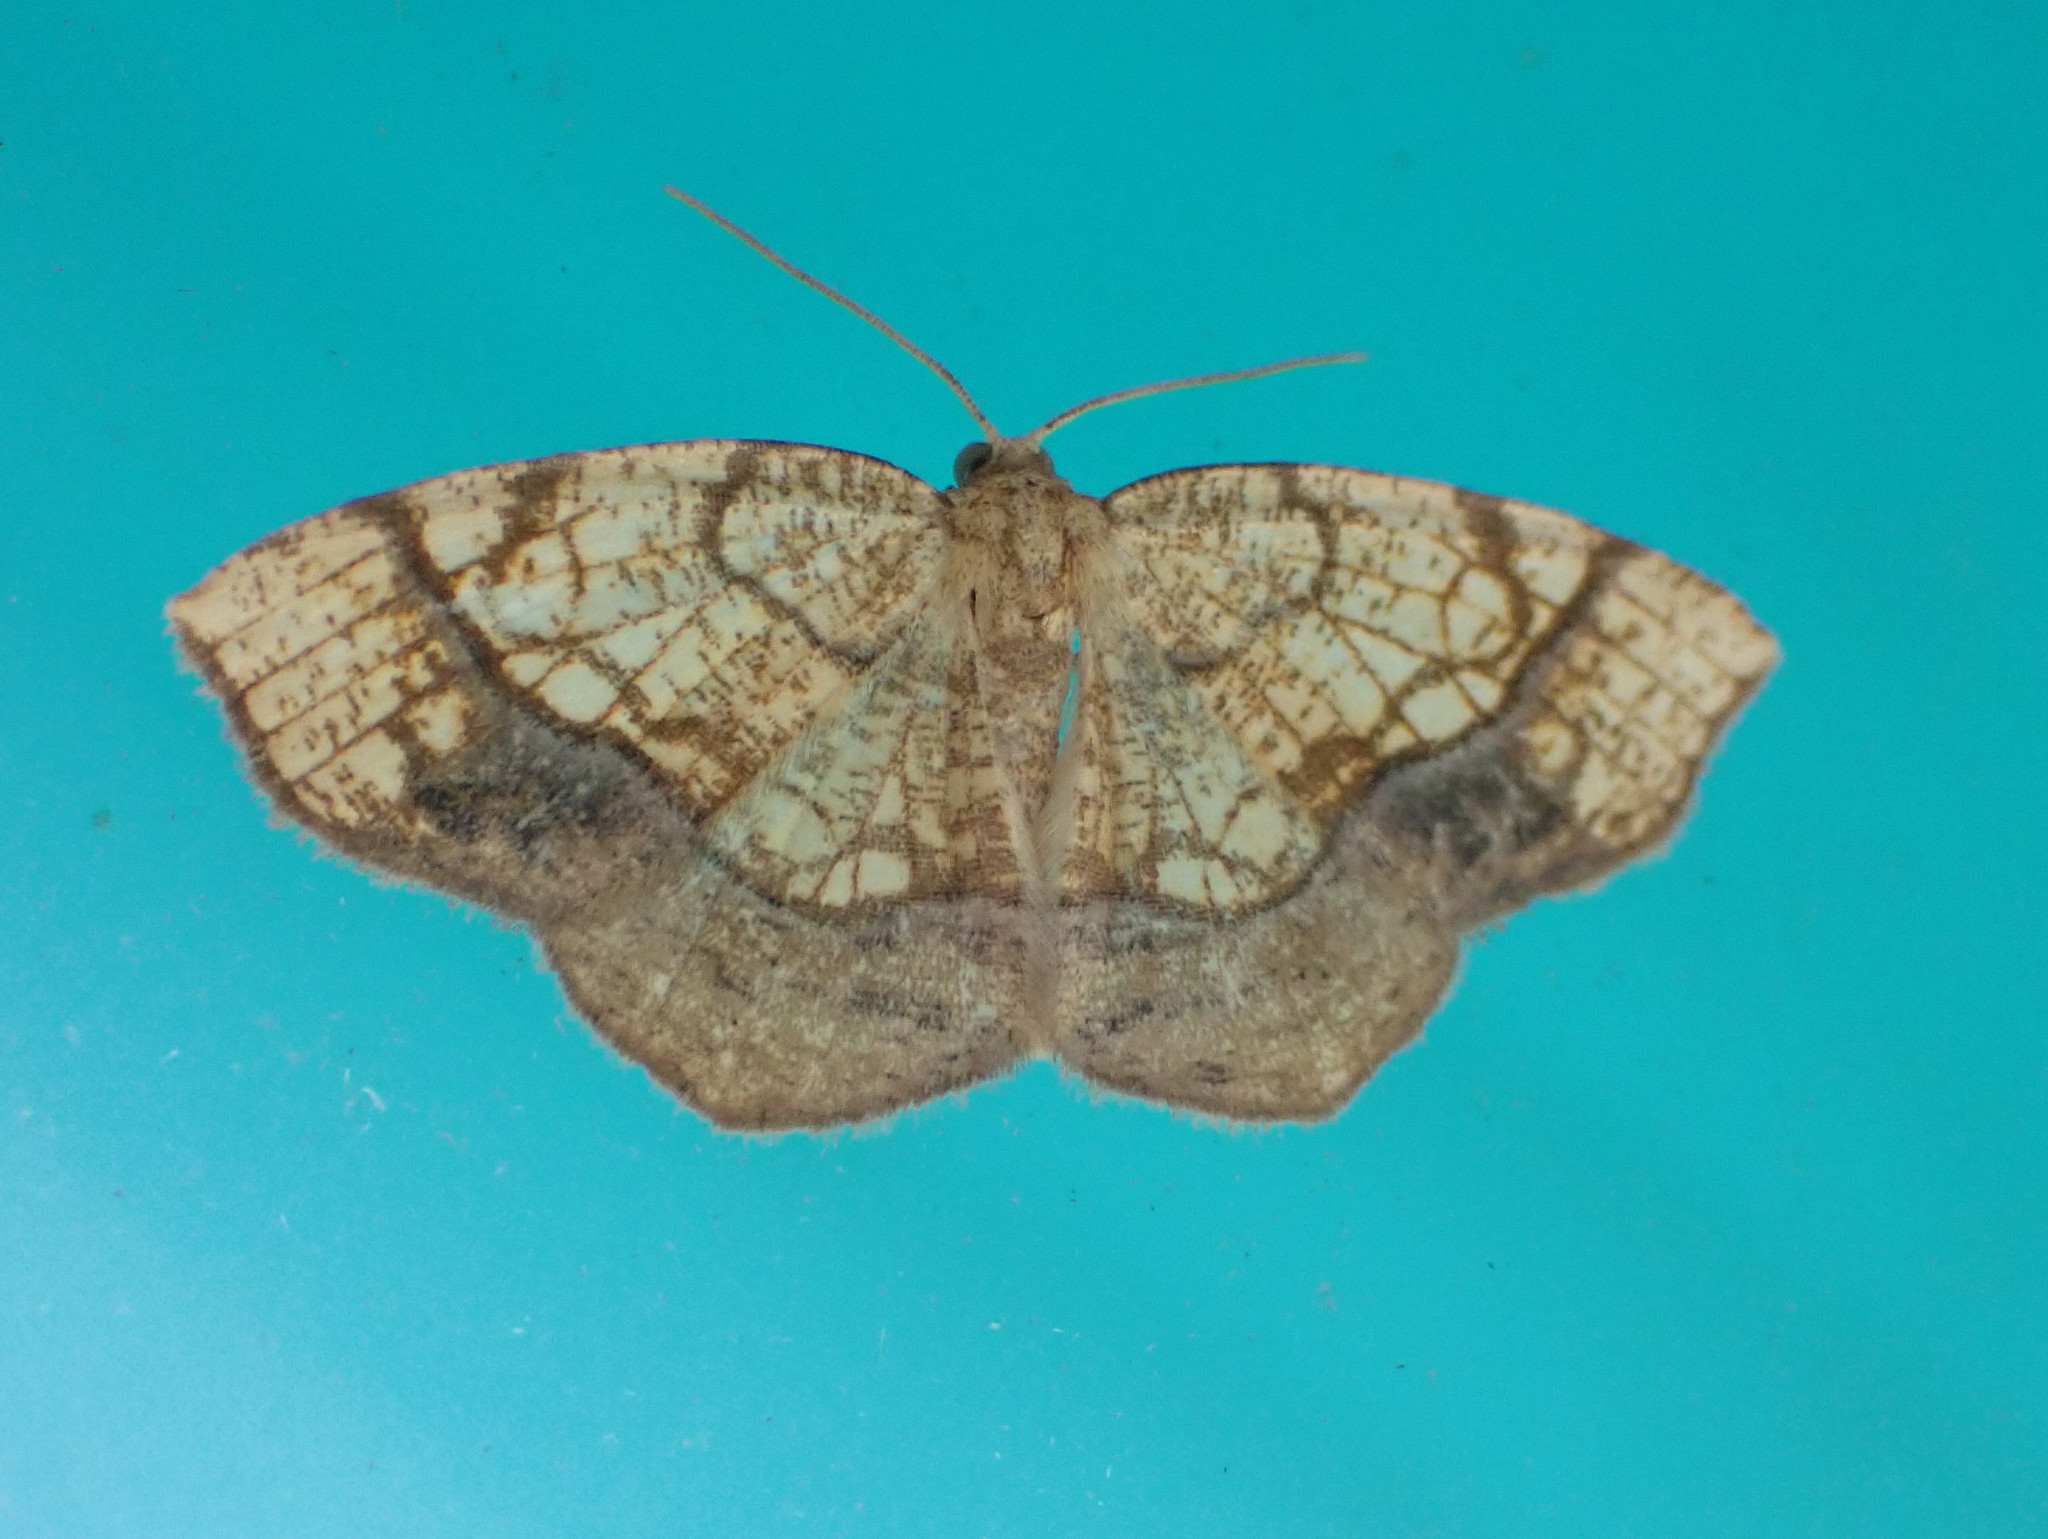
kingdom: Animalia
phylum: Arthropoda
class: Insecta
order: Lepidoptera
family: Geometridae
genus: Nematocampa
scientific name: Nematocampa resistaria
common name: Horned spanworm moth
